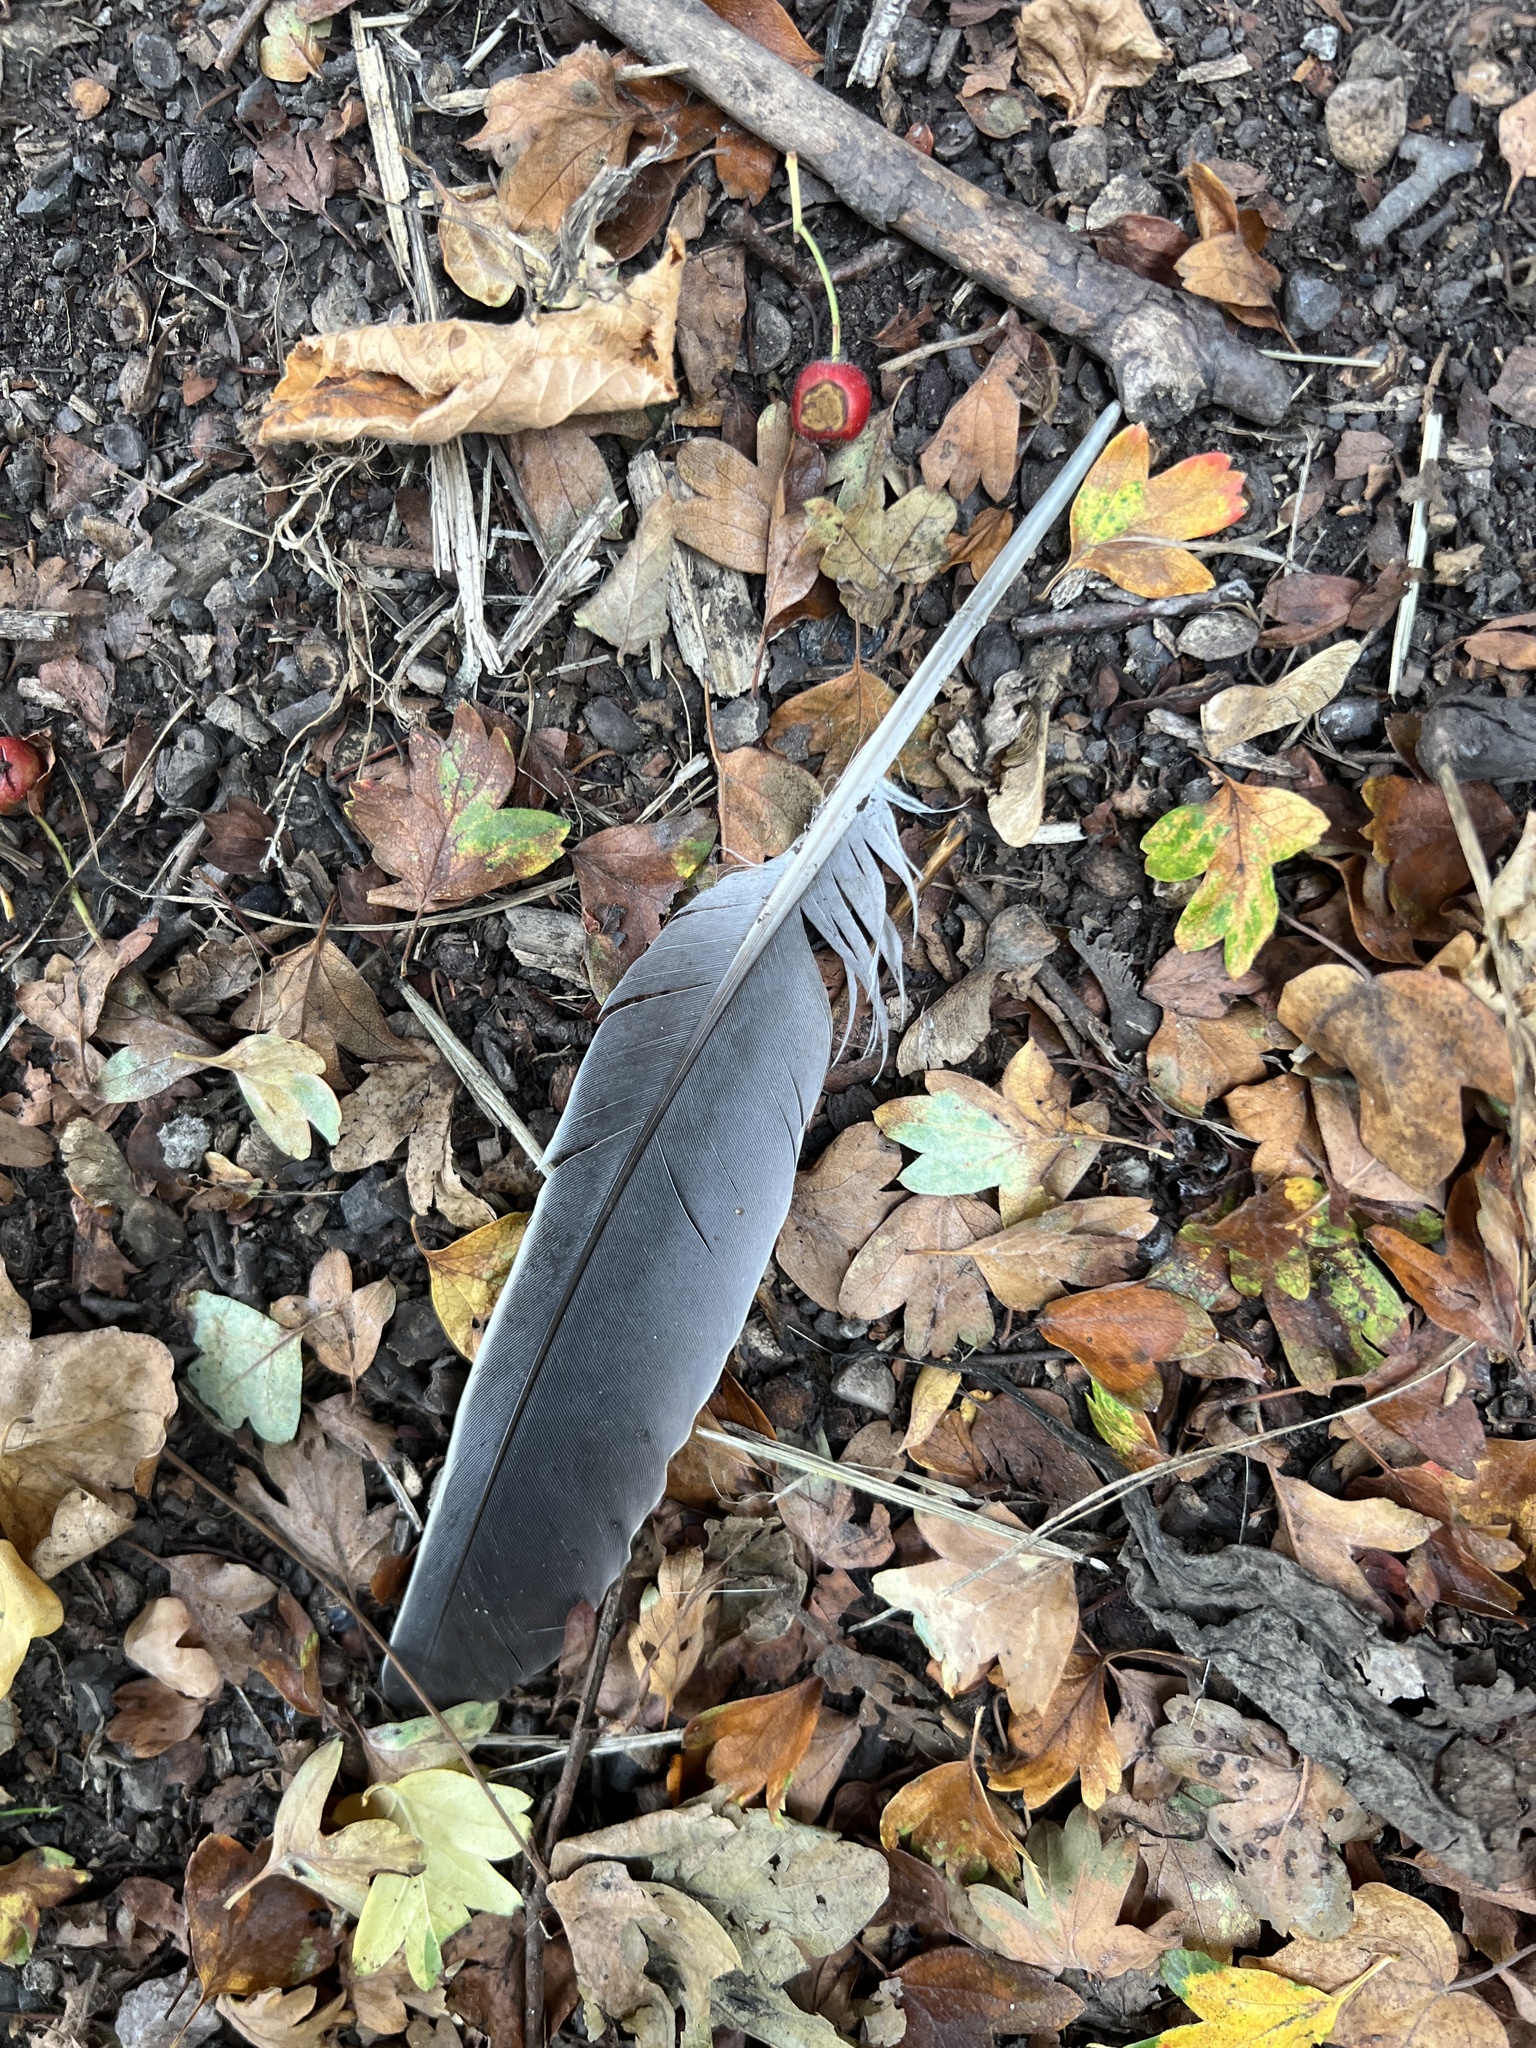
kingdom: Animalia
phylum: Chordata
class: Aves
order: Columbiformes
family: Columbidae
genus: Columba
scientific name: Columba palumbus
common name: Common wood pigeon
